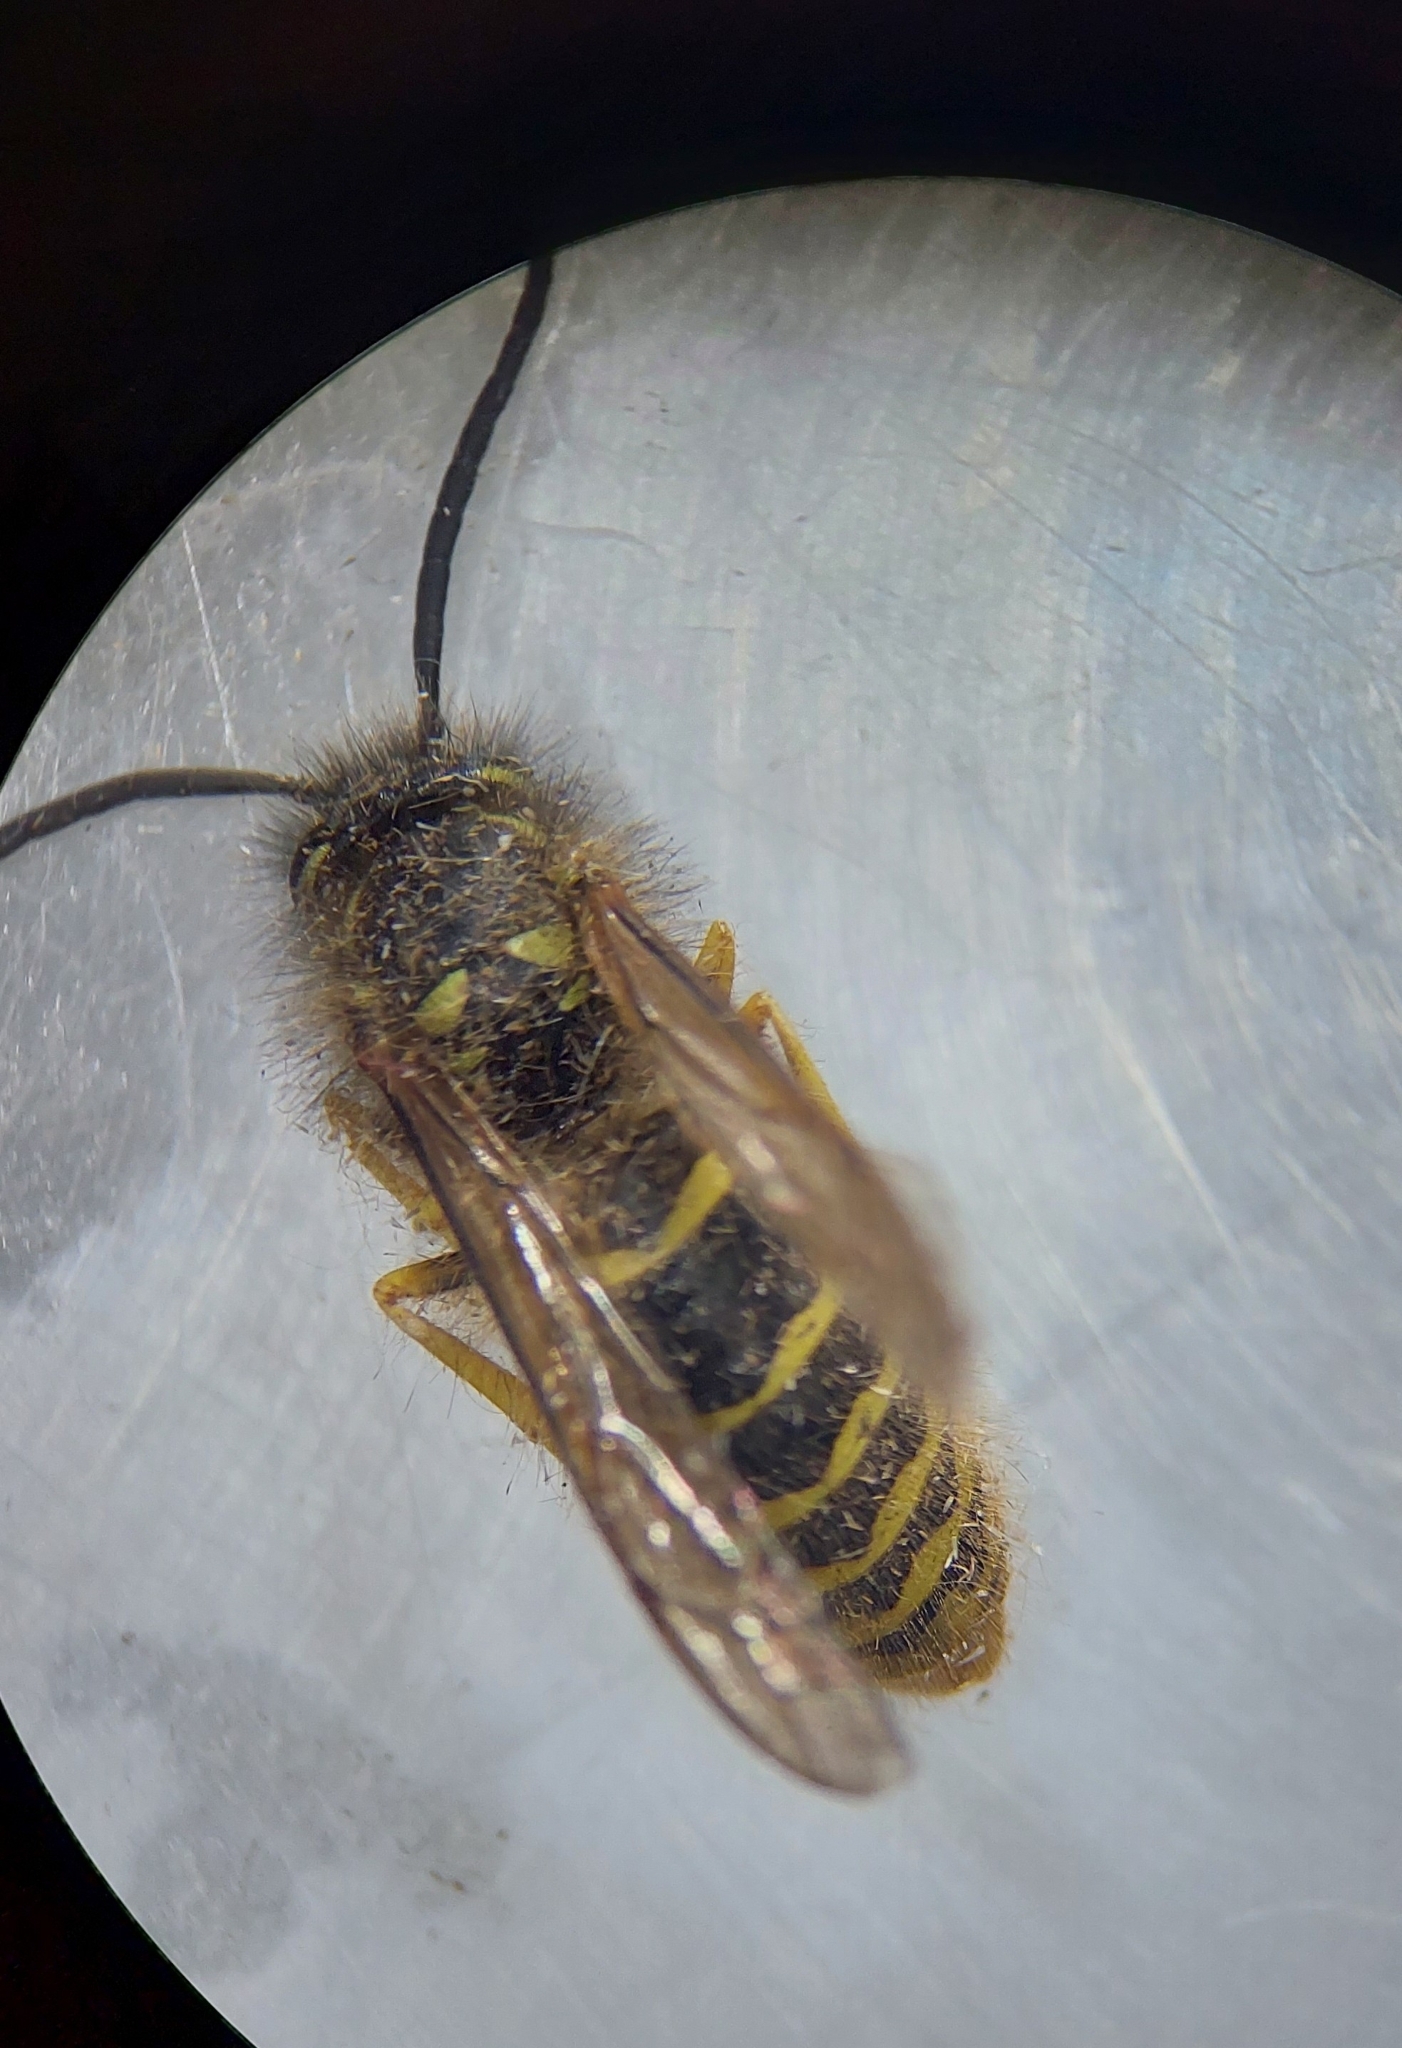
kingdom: Animalia
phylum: Arthropoda
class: Insecta
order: Hymenoptera
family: Vespidae
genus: Vespula
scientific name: Vespula vulgaris
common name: Common wasp
